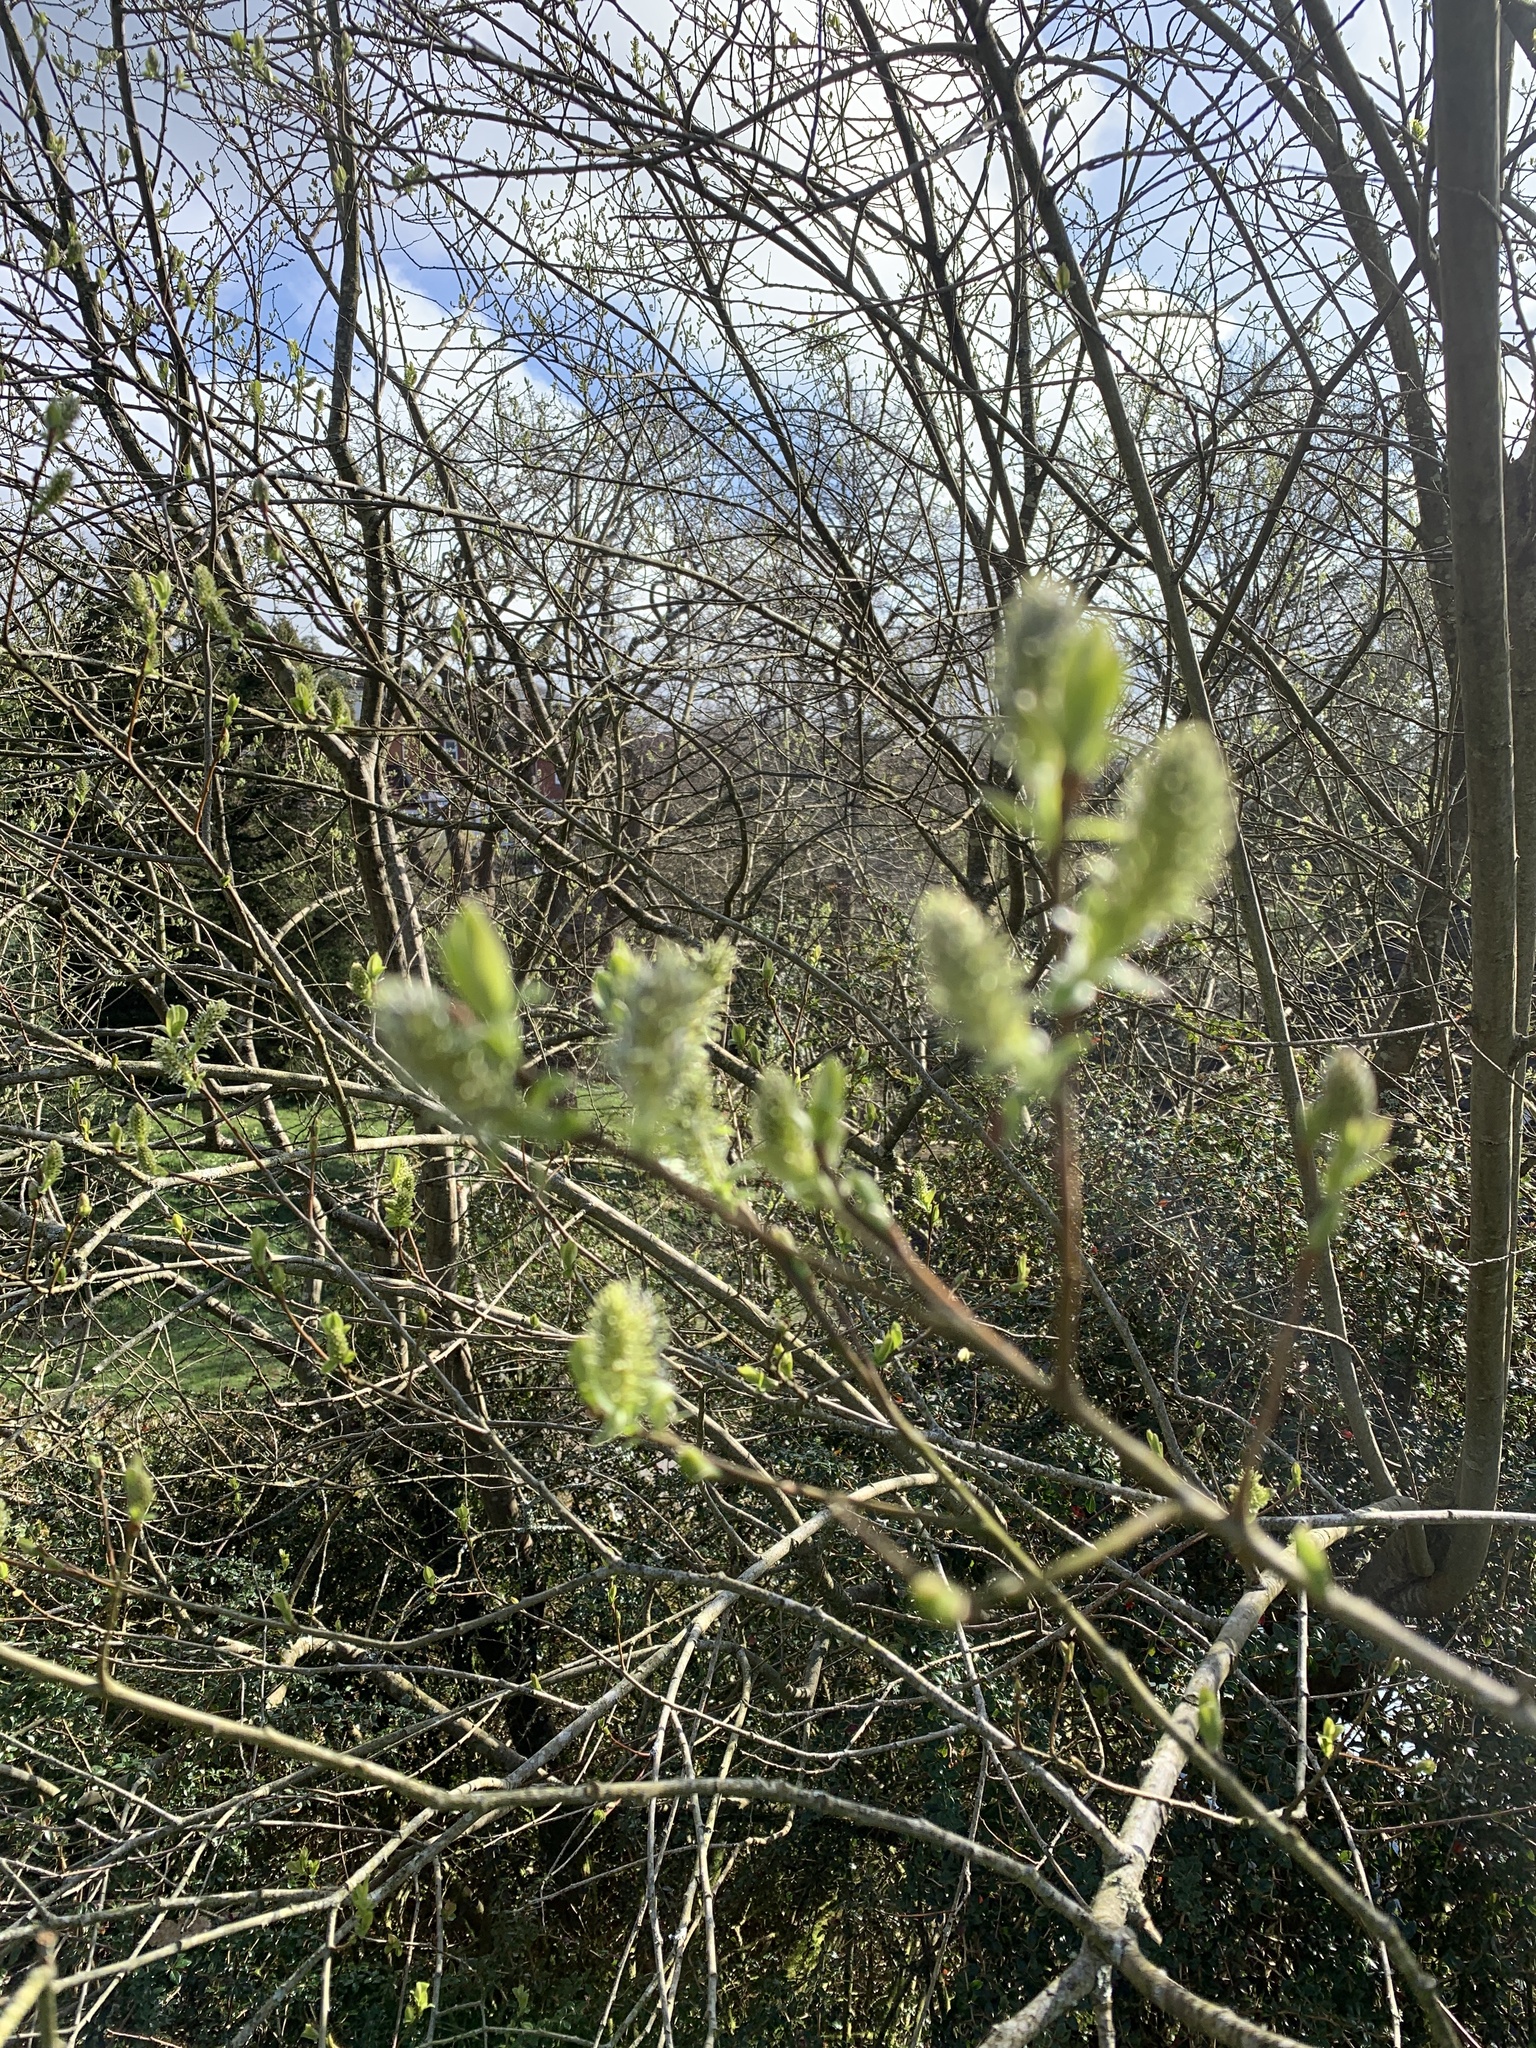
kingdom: Plantae
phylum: Tracheophyta
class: Magnoliopsida
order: Malpighiales
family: Salicaceae
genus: Salix
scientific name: Salix atrocinerea
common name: Rusty willow
